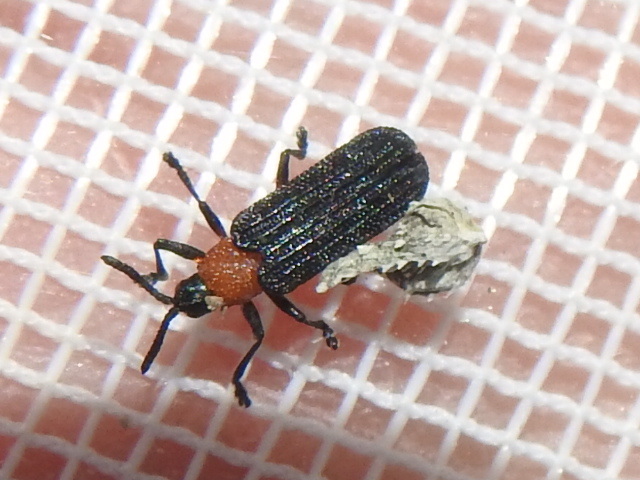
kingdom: Animalia
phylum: Arthropoda
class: Insecta
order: Coleoptera
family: Chrysomelidae
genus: Chalepus
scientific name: Chalepus bicolor
